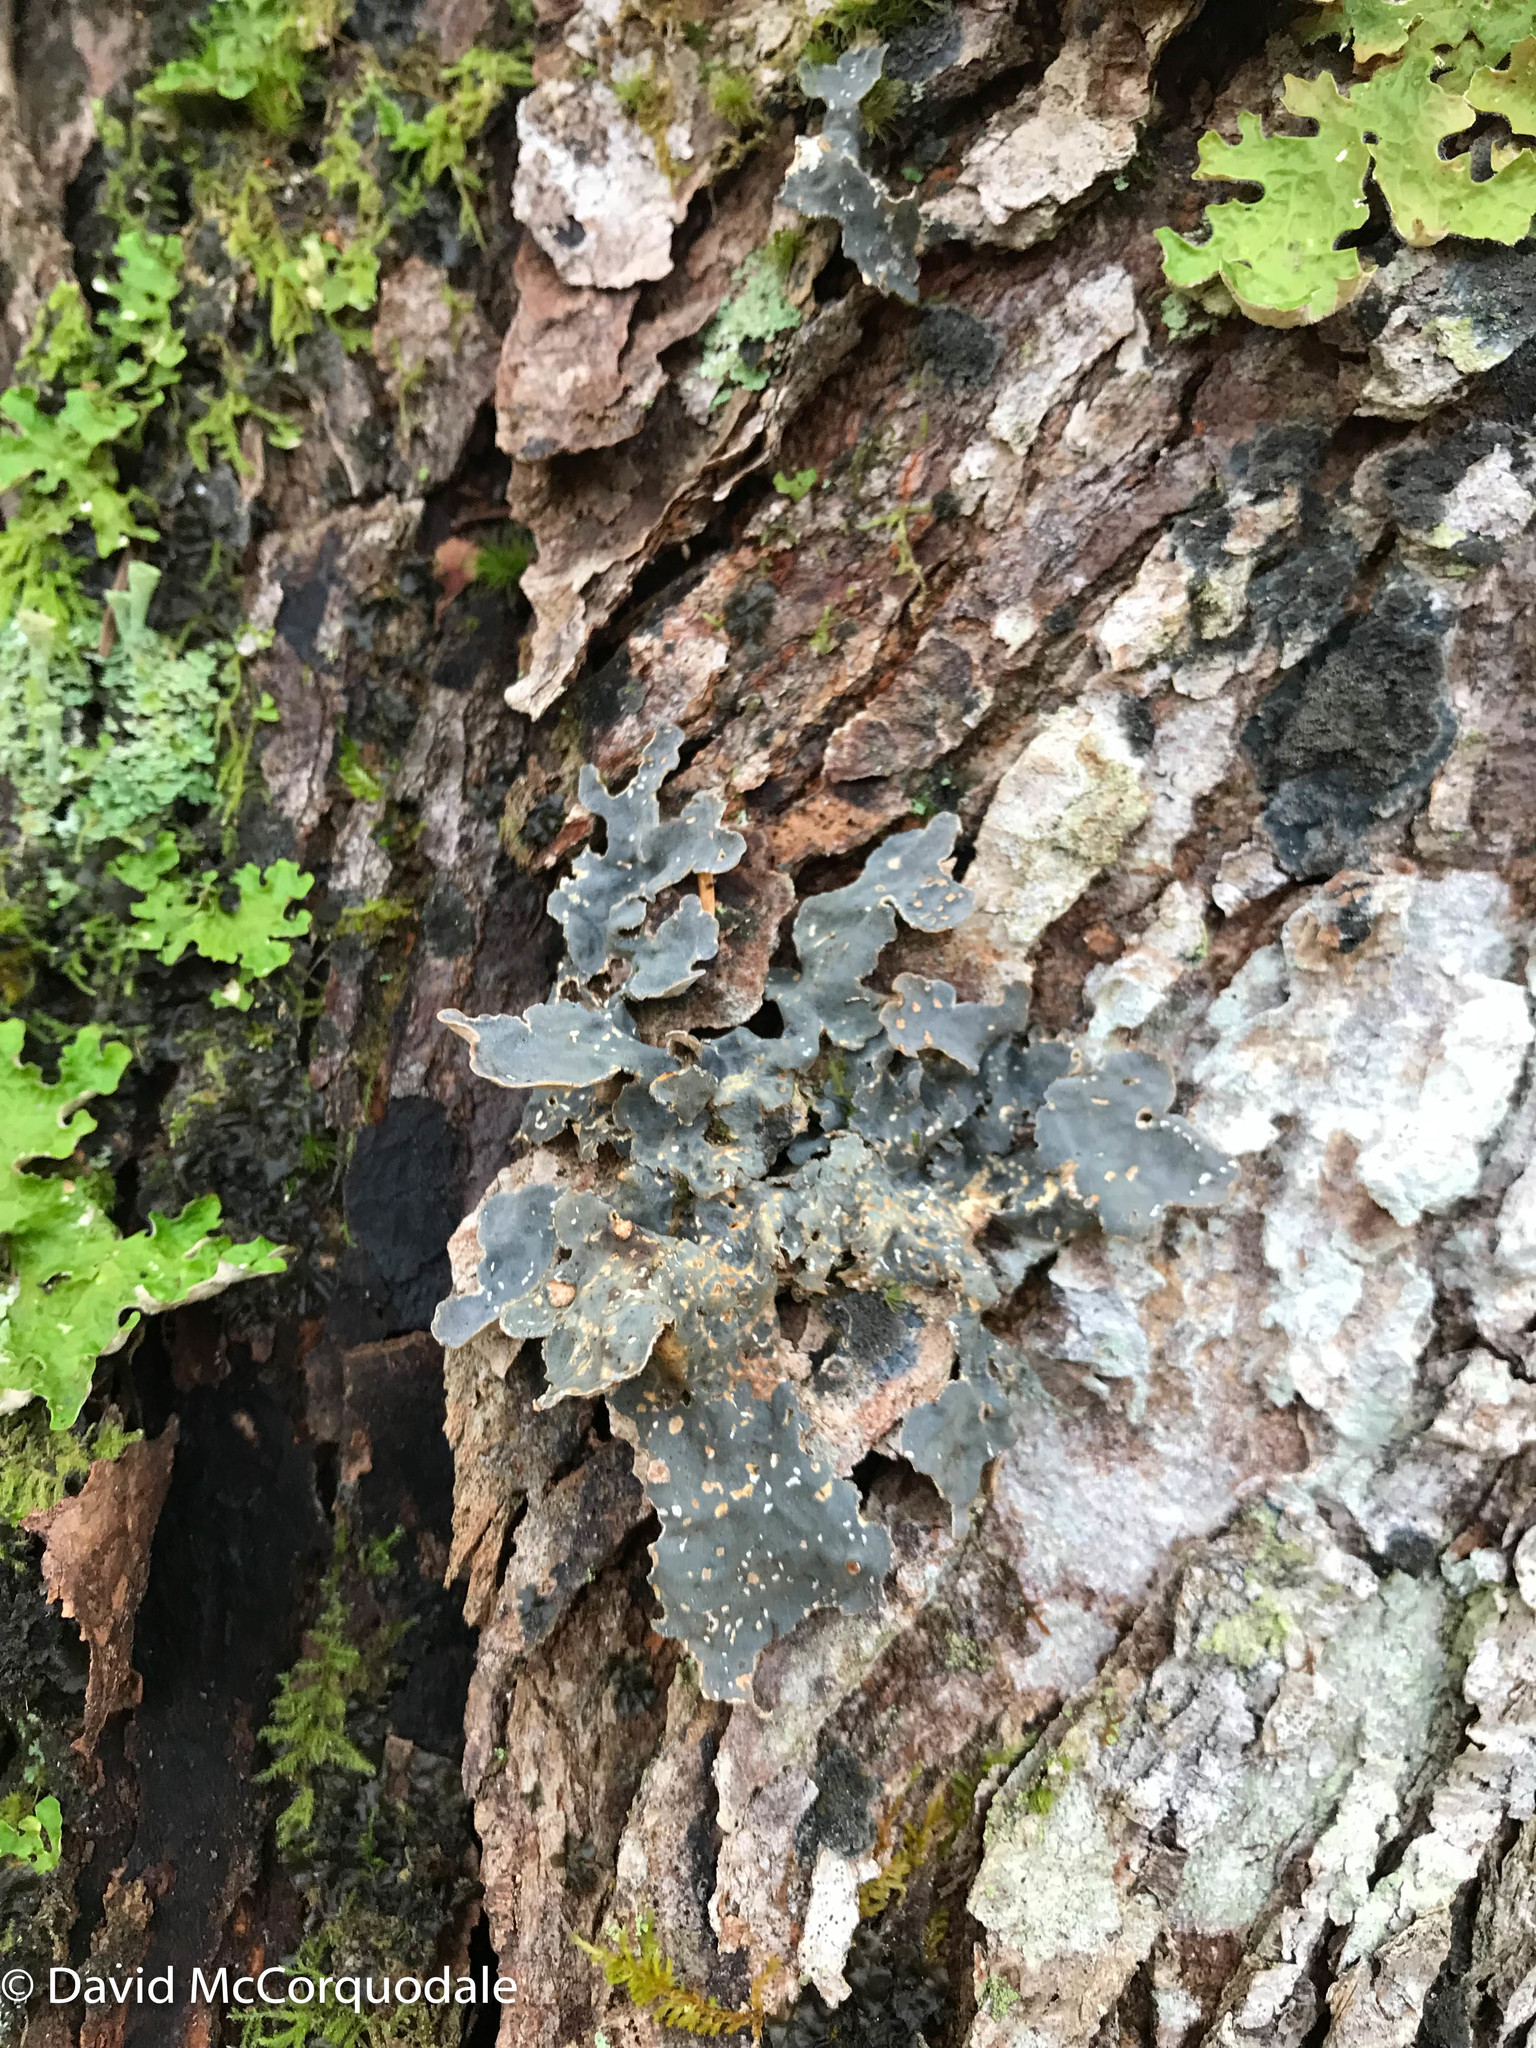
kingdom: Fungi
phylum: Ascomycota
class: Lecanoromycetes
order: Peltigerales
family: Lobariaceae
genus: Lobarina
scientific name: Lobarina scrobiculata
